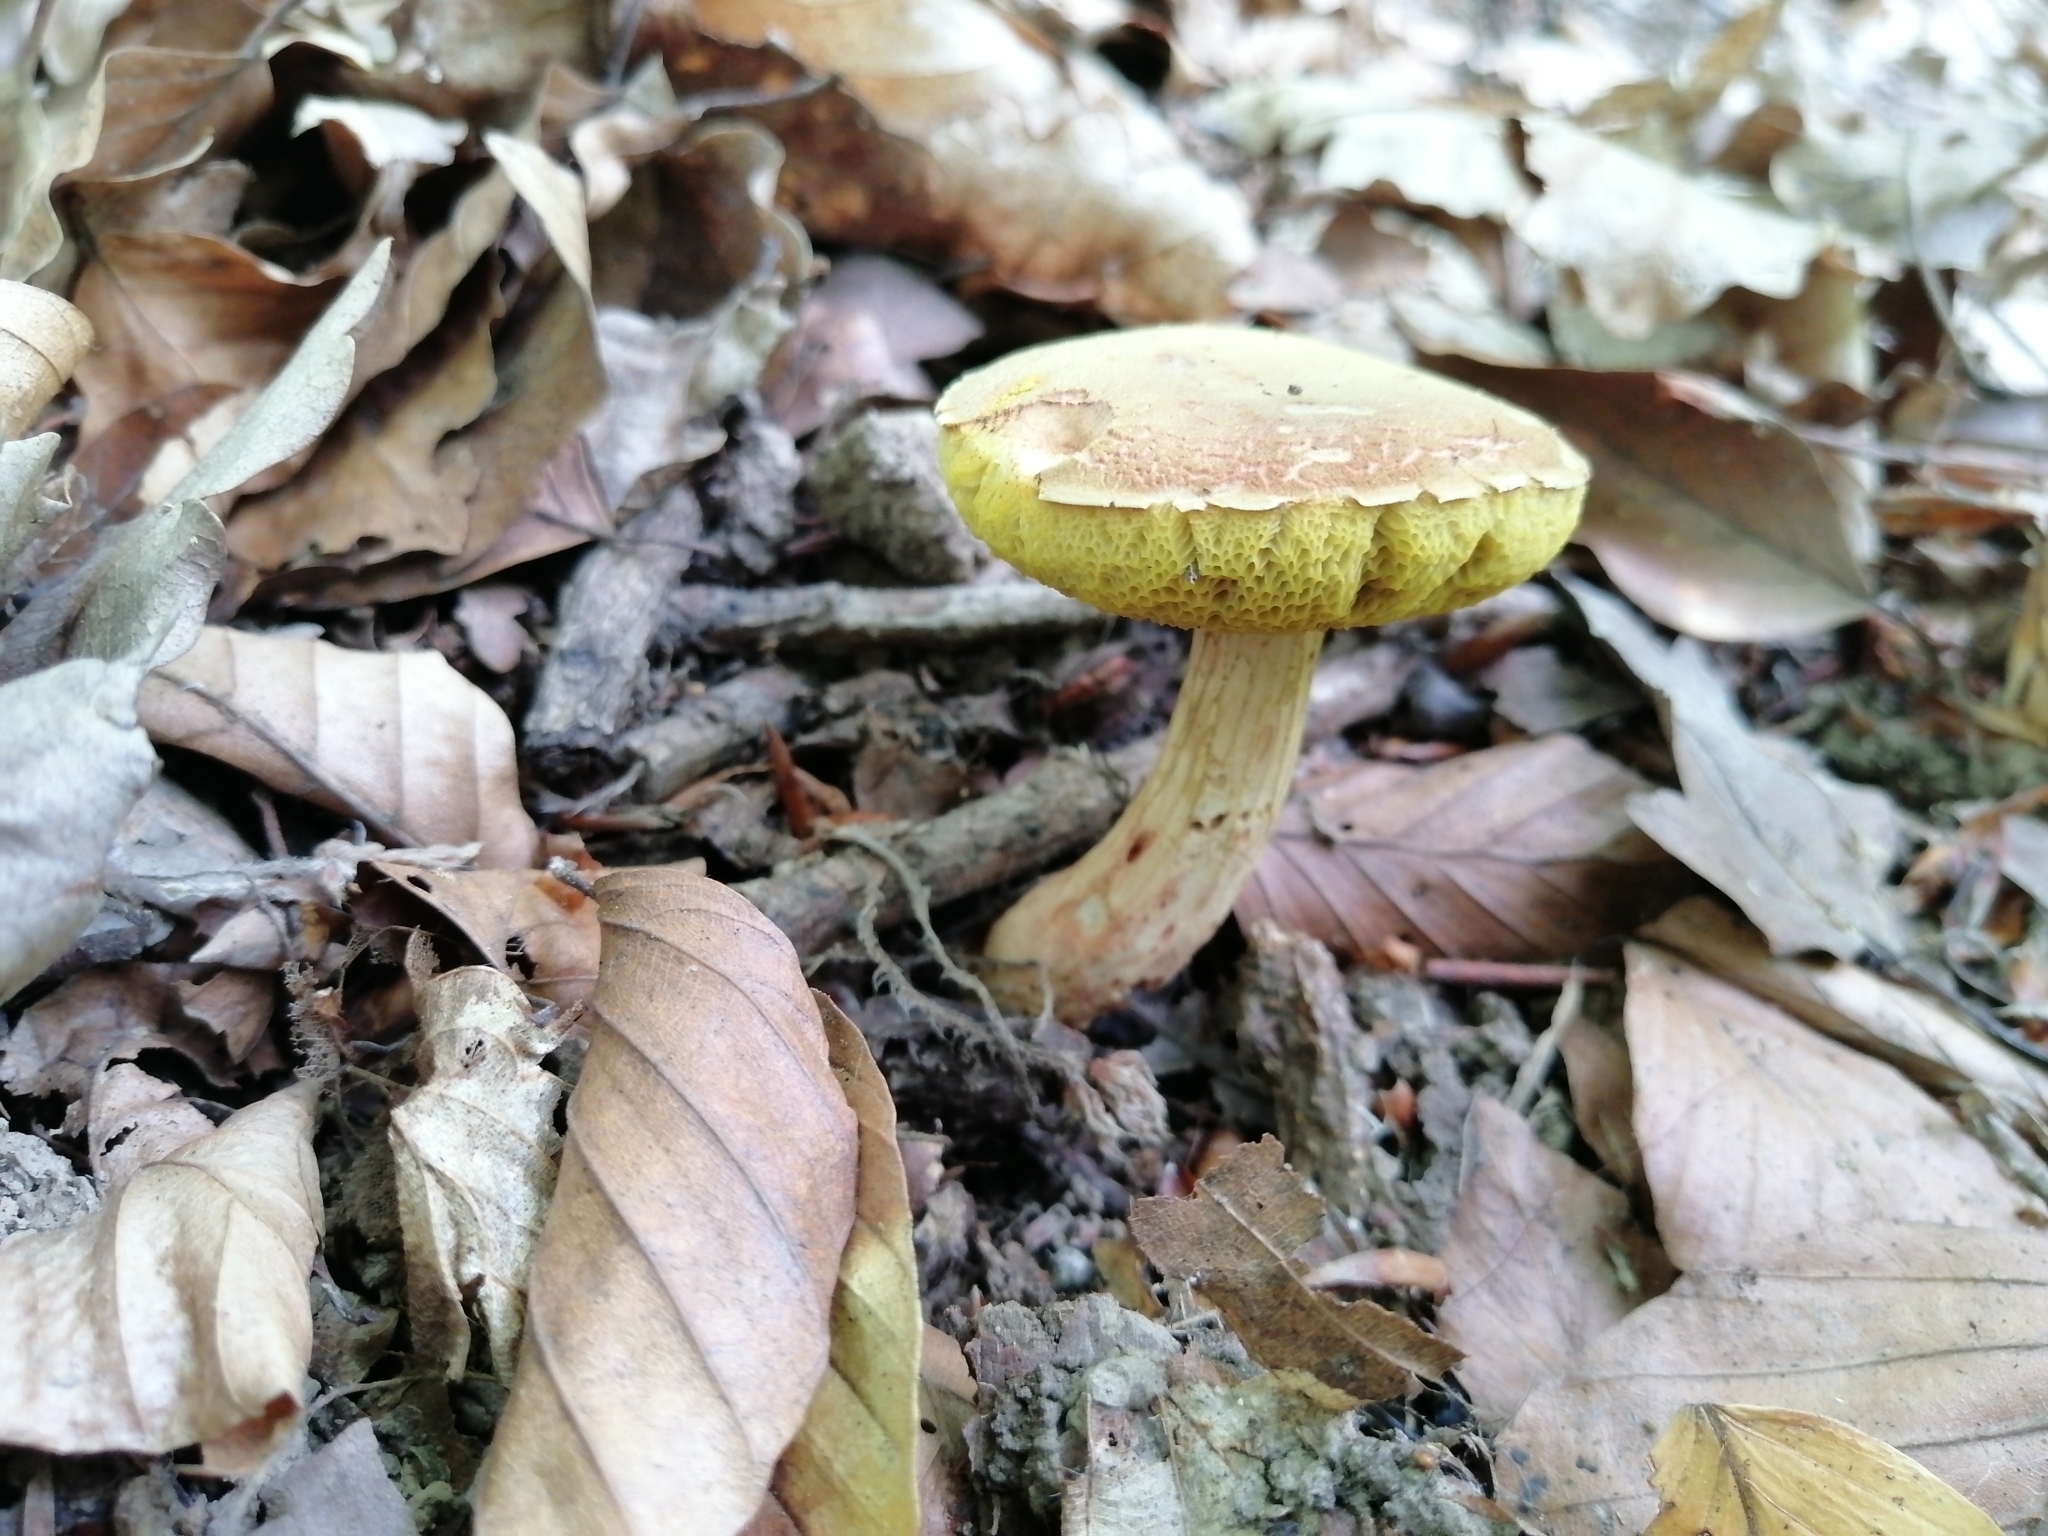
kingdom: Fungi
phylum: Basidiomycota
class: Agaricomycetes
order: Boletales
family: Boletaceae
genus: Xerocomus
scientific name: Xerocomus subtomentosus
